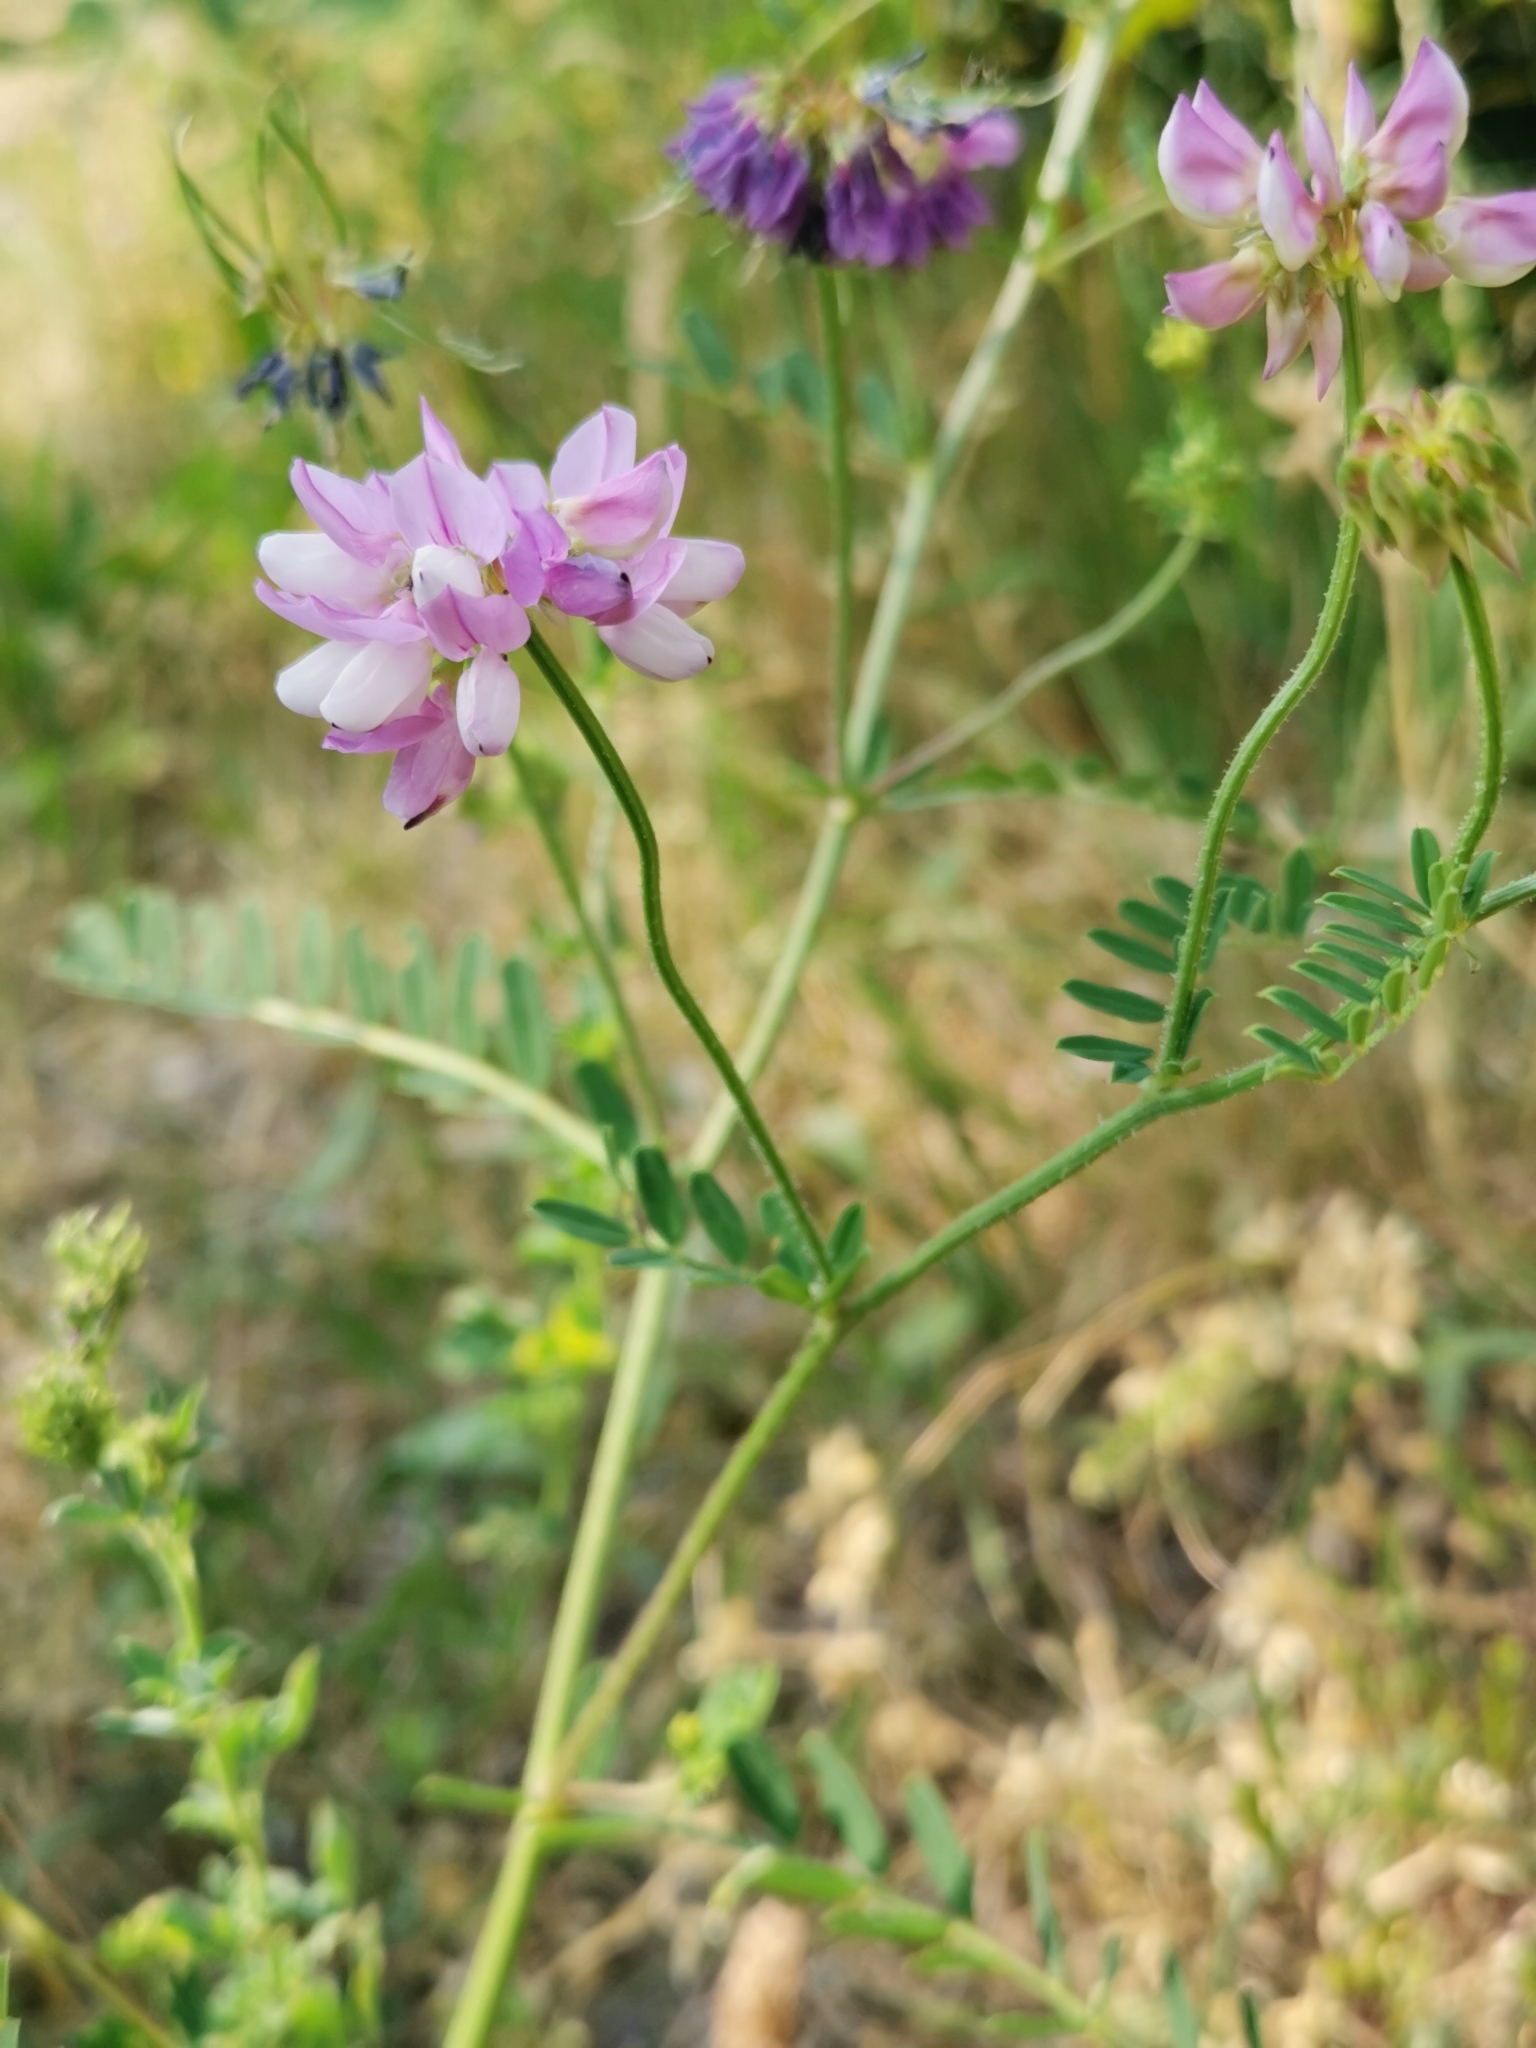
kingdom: Plantae
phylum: Tracheophyta
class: Magnoliopsida
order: Fabales
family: Fabaceae
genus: Coronilla
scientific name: Coronilla varia
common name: Crownvetch
